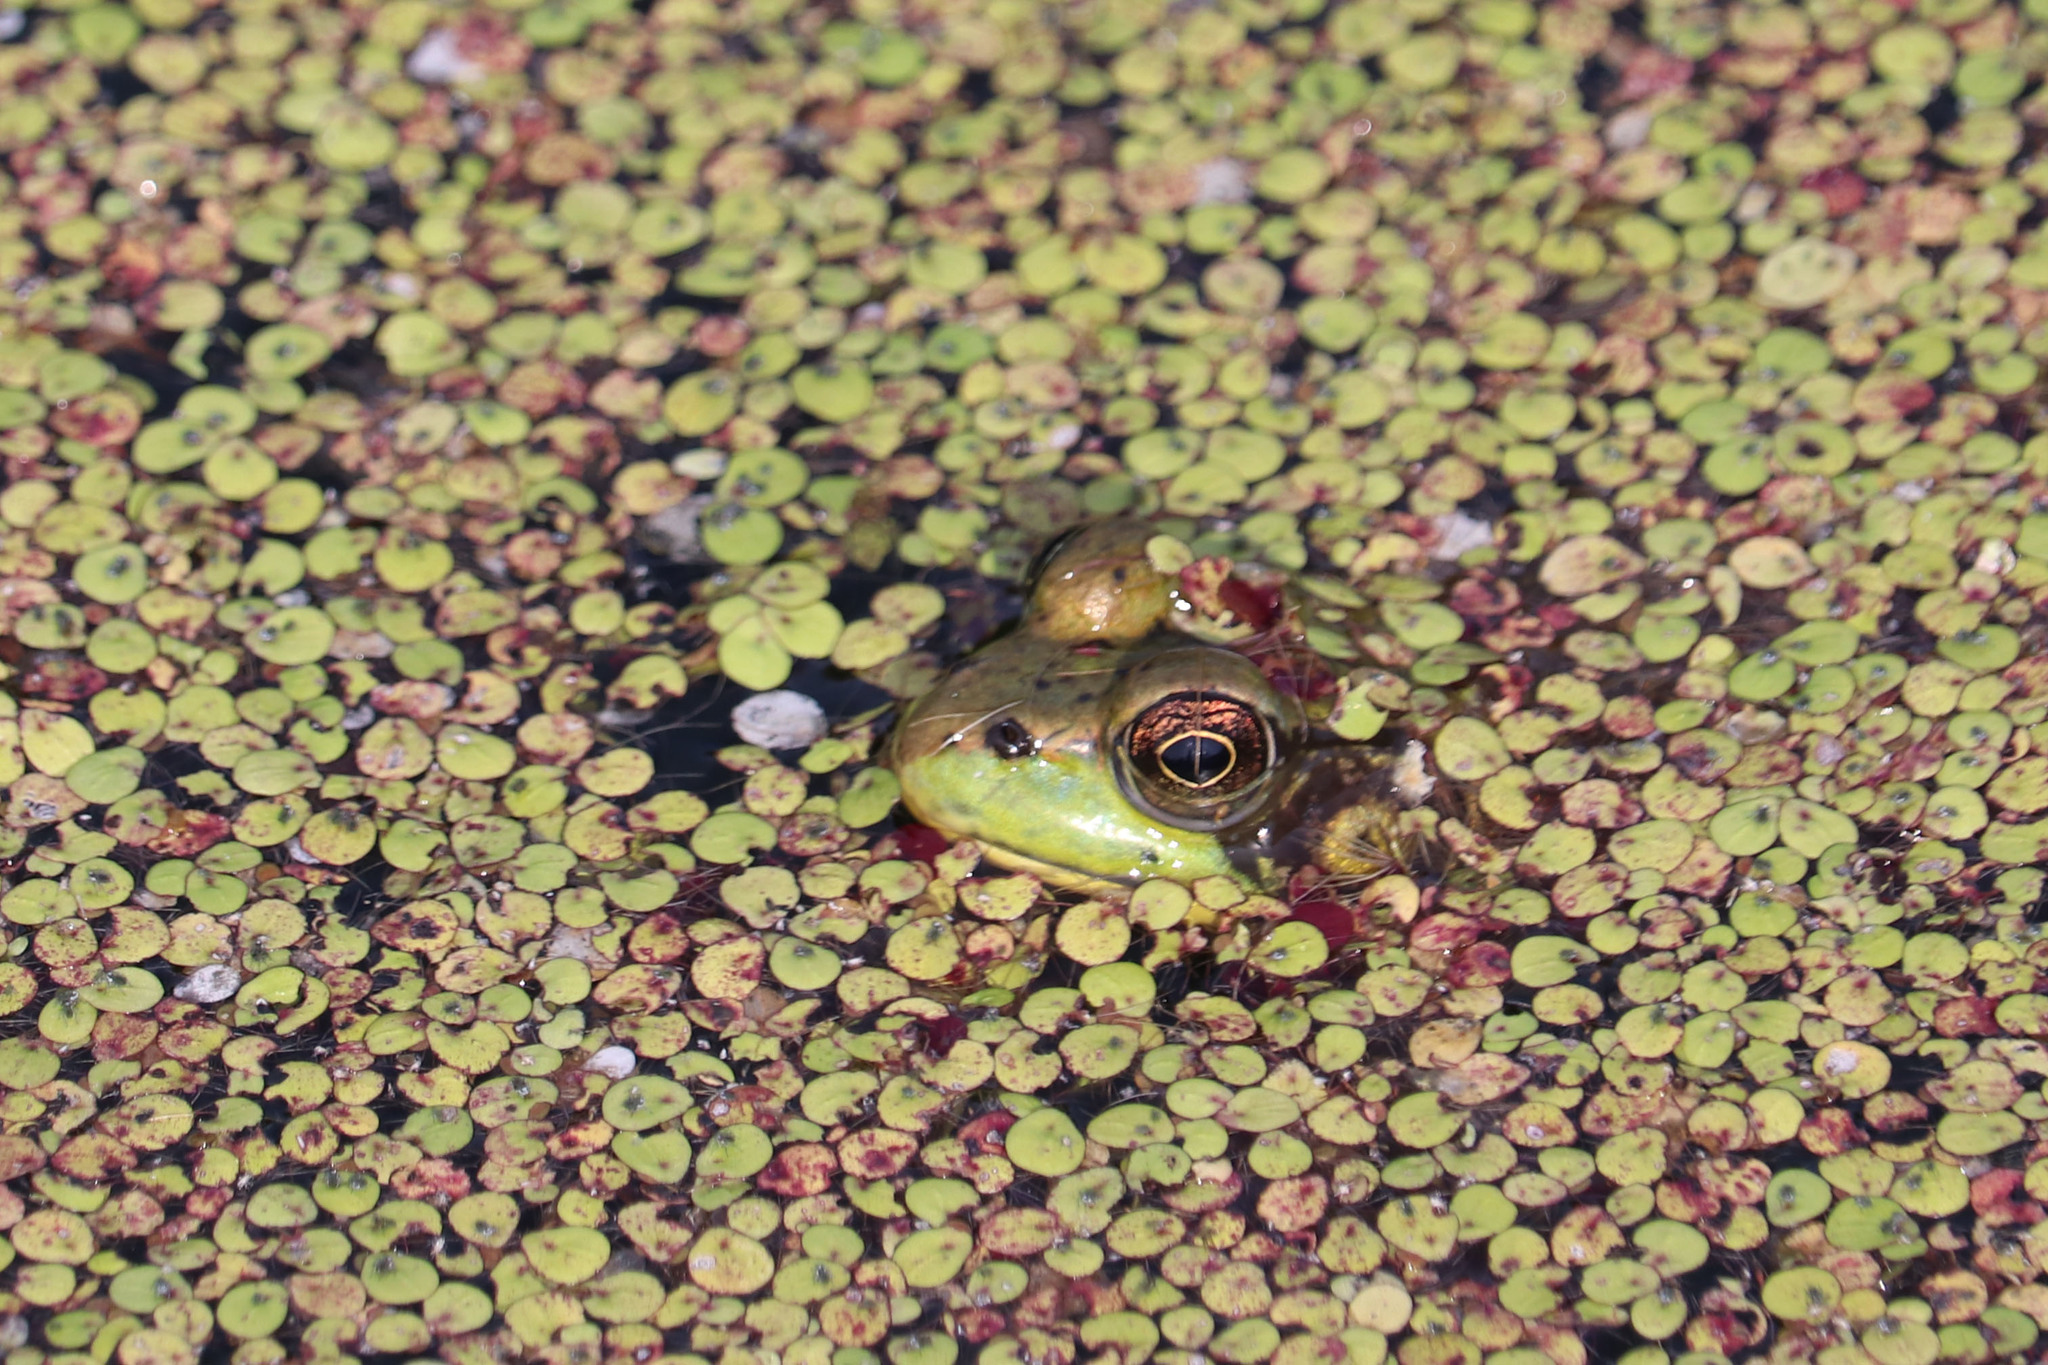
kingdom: Animalia
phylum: Chordata
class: Amphibia
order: Anura
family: Ranidae
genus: Lithobates
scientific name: Lithobates clamitans
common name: Green frog
